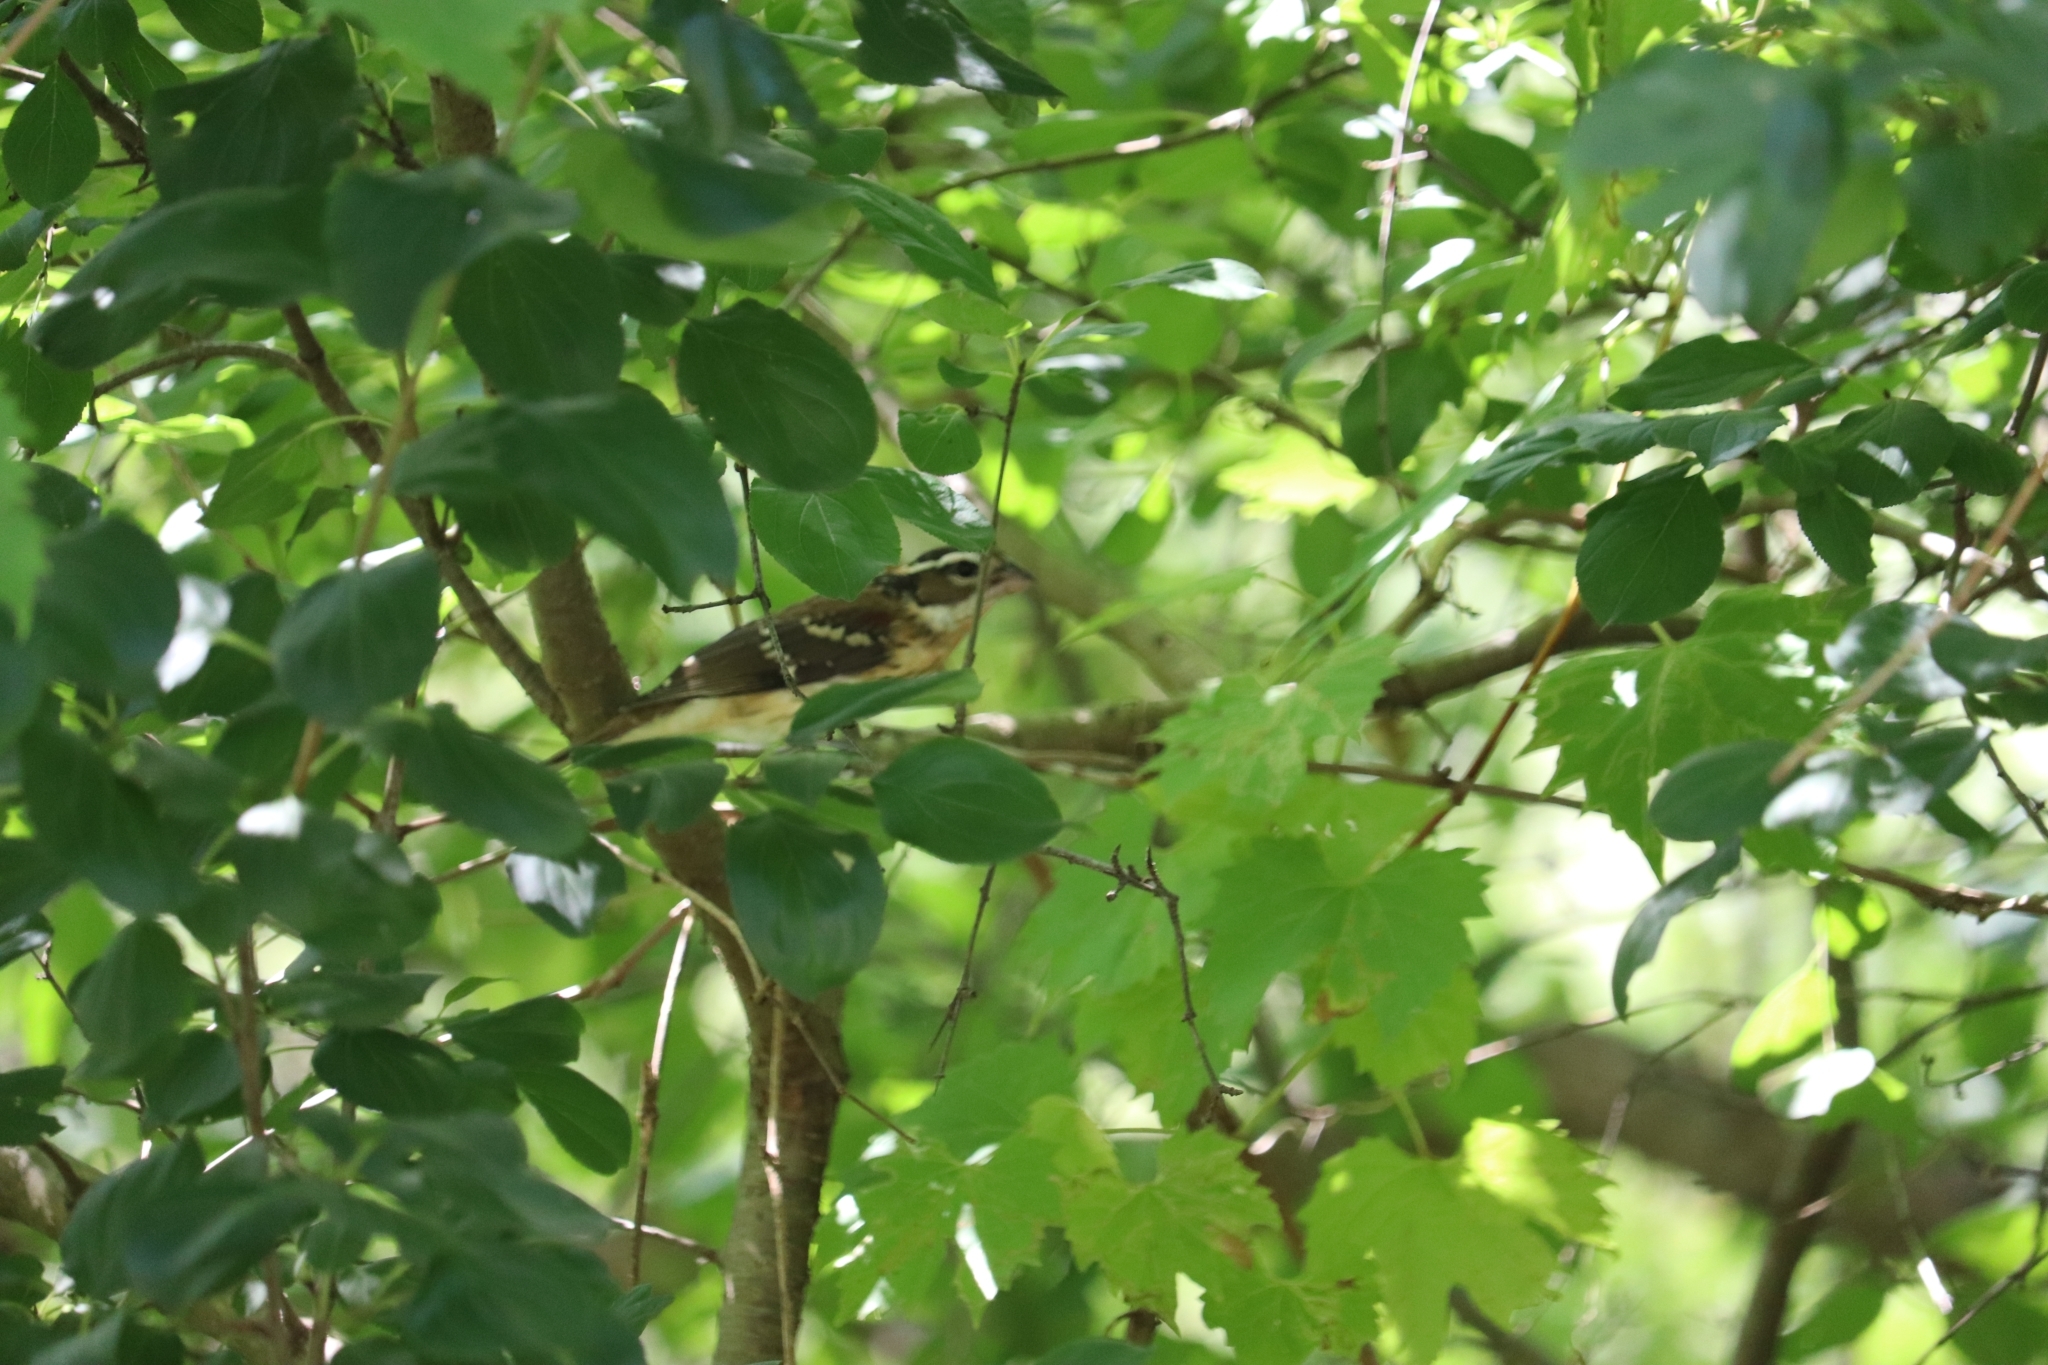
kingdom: Animalia
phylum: Chordata
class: Aves
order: Passeriformes
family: Cardinalidae
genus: Pheucticus
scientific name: Pheucticus ludovicianus
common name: Rose-breasted grosbeak
